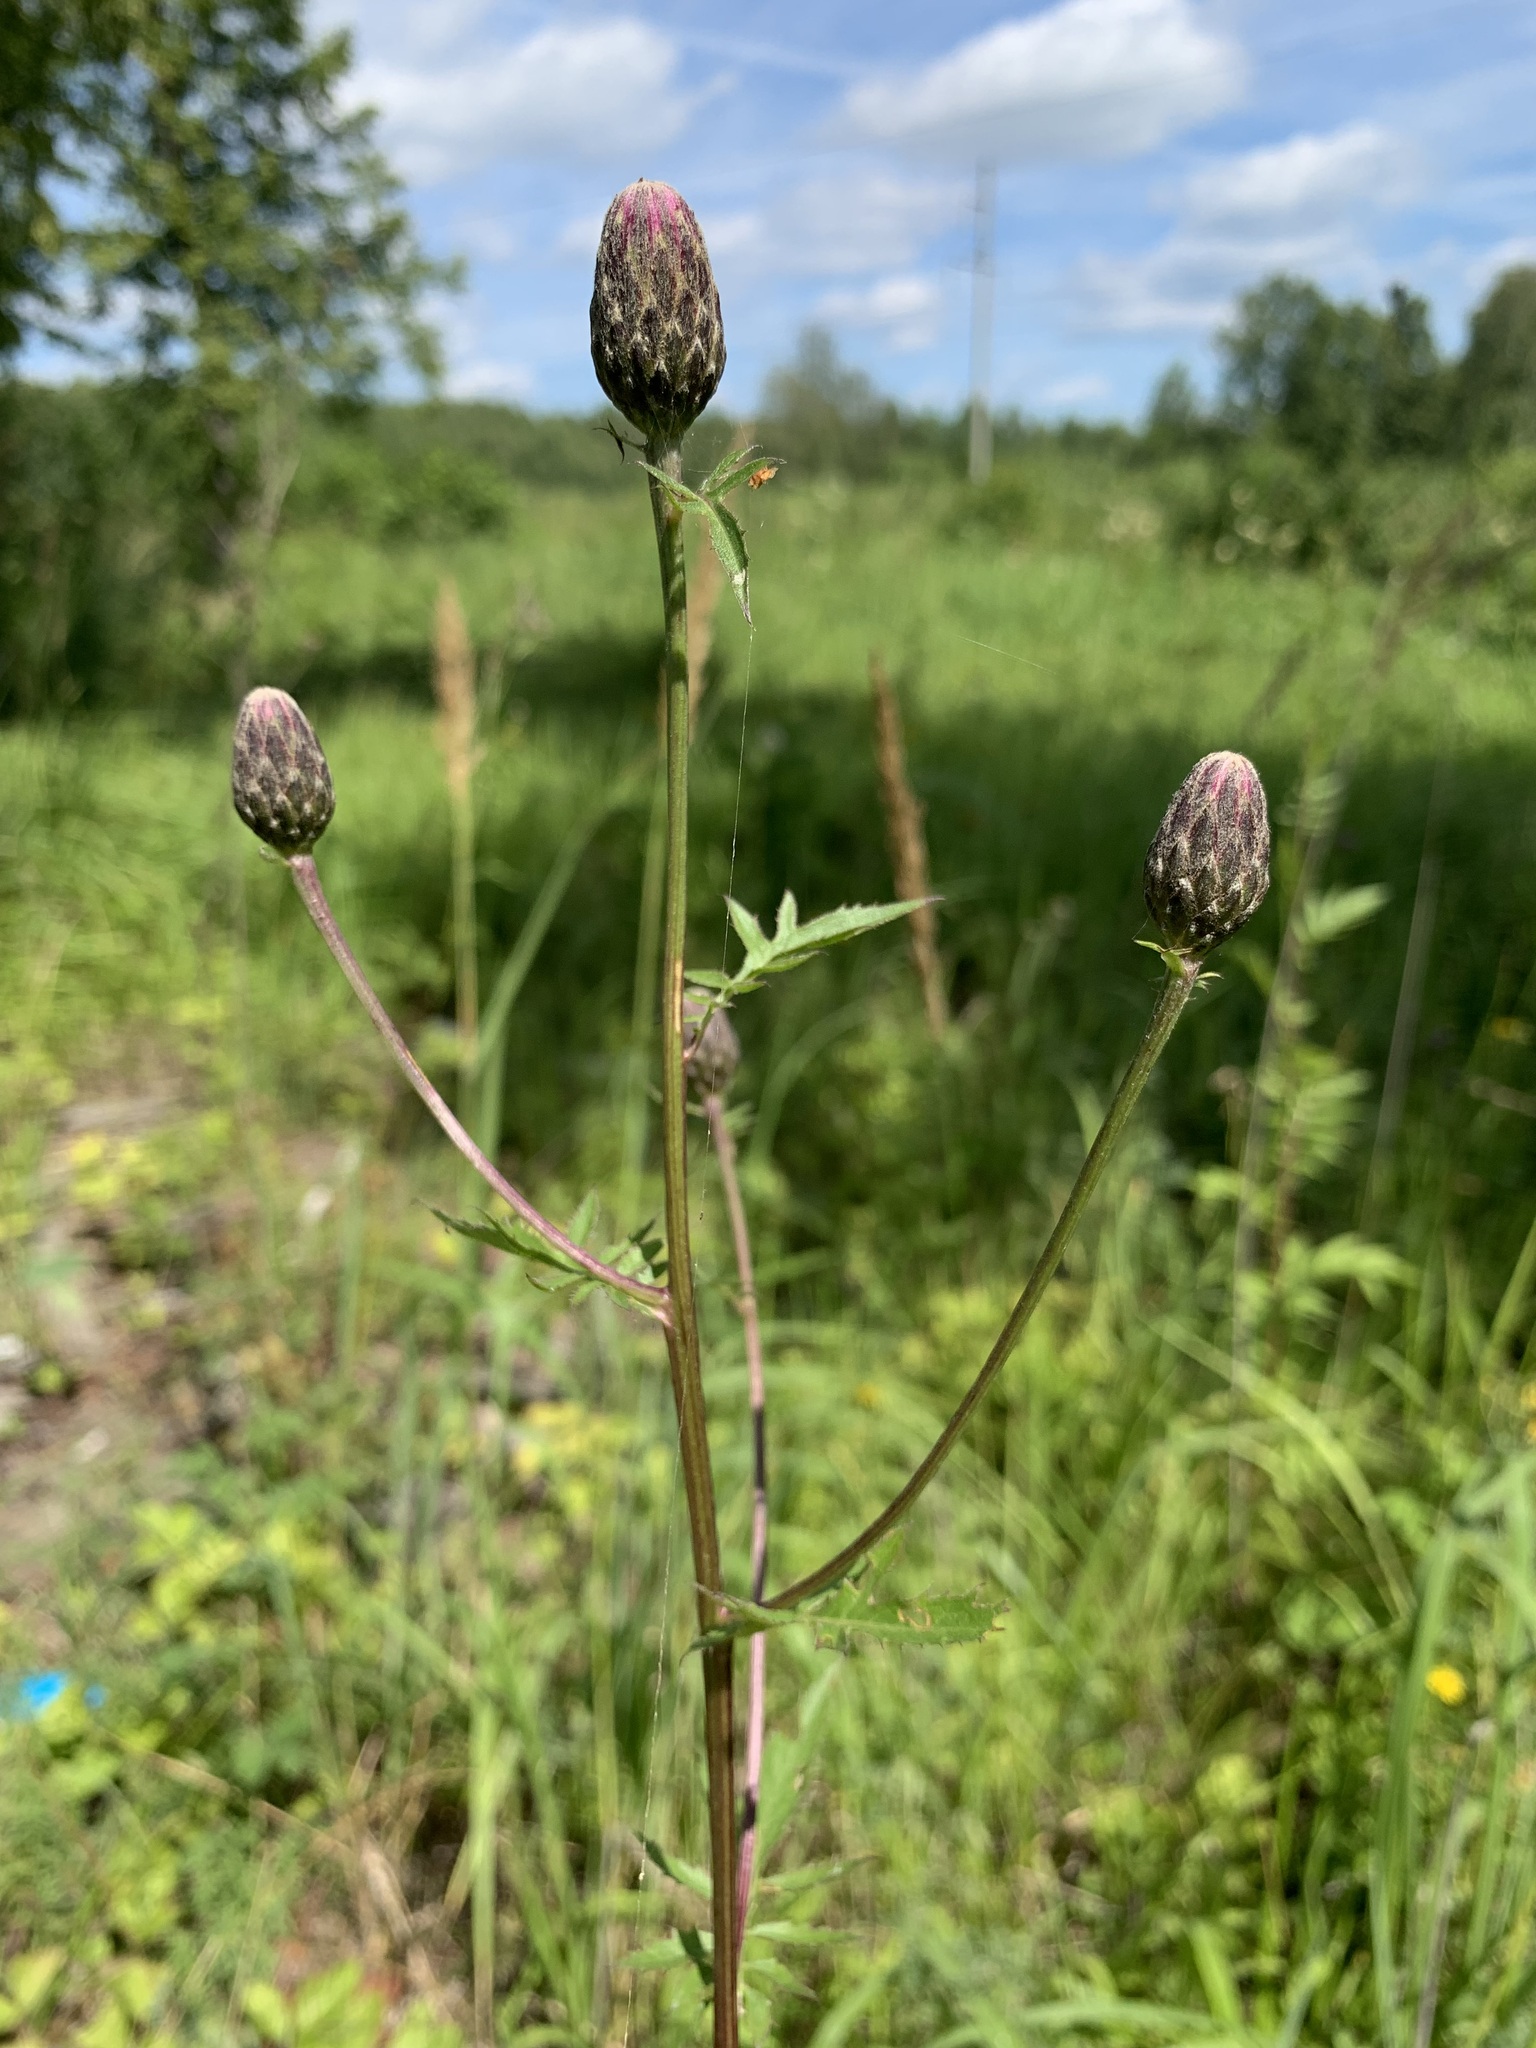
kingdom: Plantae
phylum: Tracheophyta
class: Magnoliopsida
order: Asterales
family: Asteraceae
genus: Serratula
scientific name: Serratula coronata
